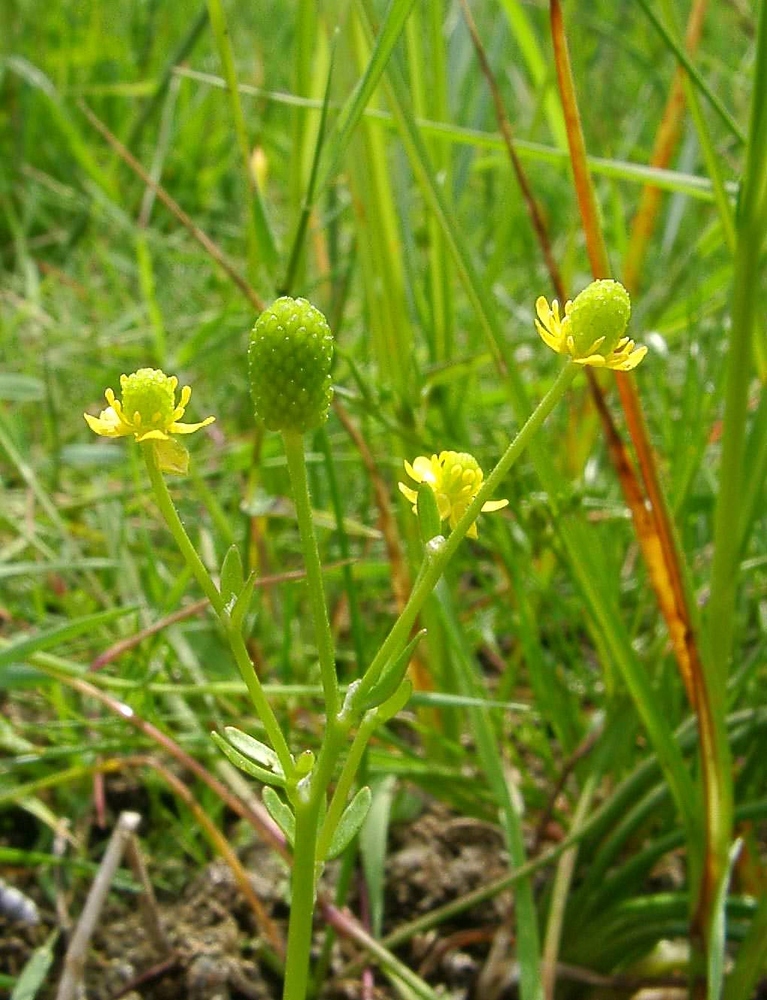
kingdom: Plantae
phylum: Tracheophyta
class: Magnoliopsida
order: Ranunculales
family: Ranunculaceae
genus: Ranunculus
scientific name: Ranunculus sceleratus
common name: Celery-leaved buttercup
